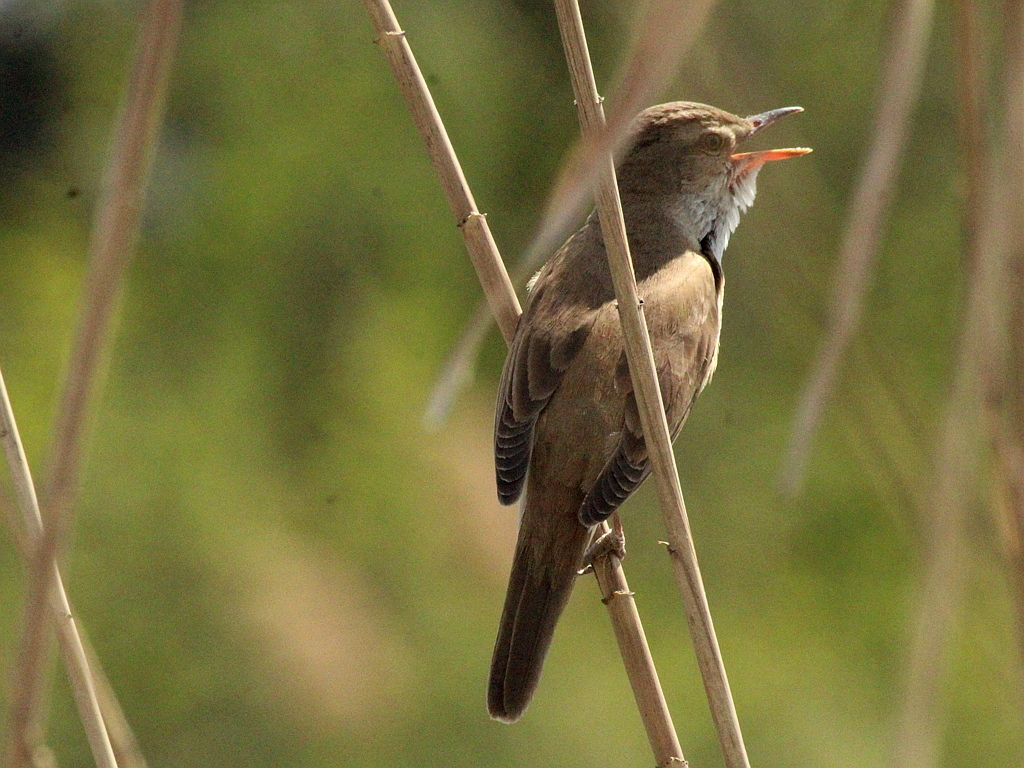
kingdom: Animalia
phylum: Chordata
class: Aves
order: Passeriformes
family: Acrocephalidae
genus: Acrocephalus
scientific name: Acrocephalus arundinaceus
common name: Great reed warbler
